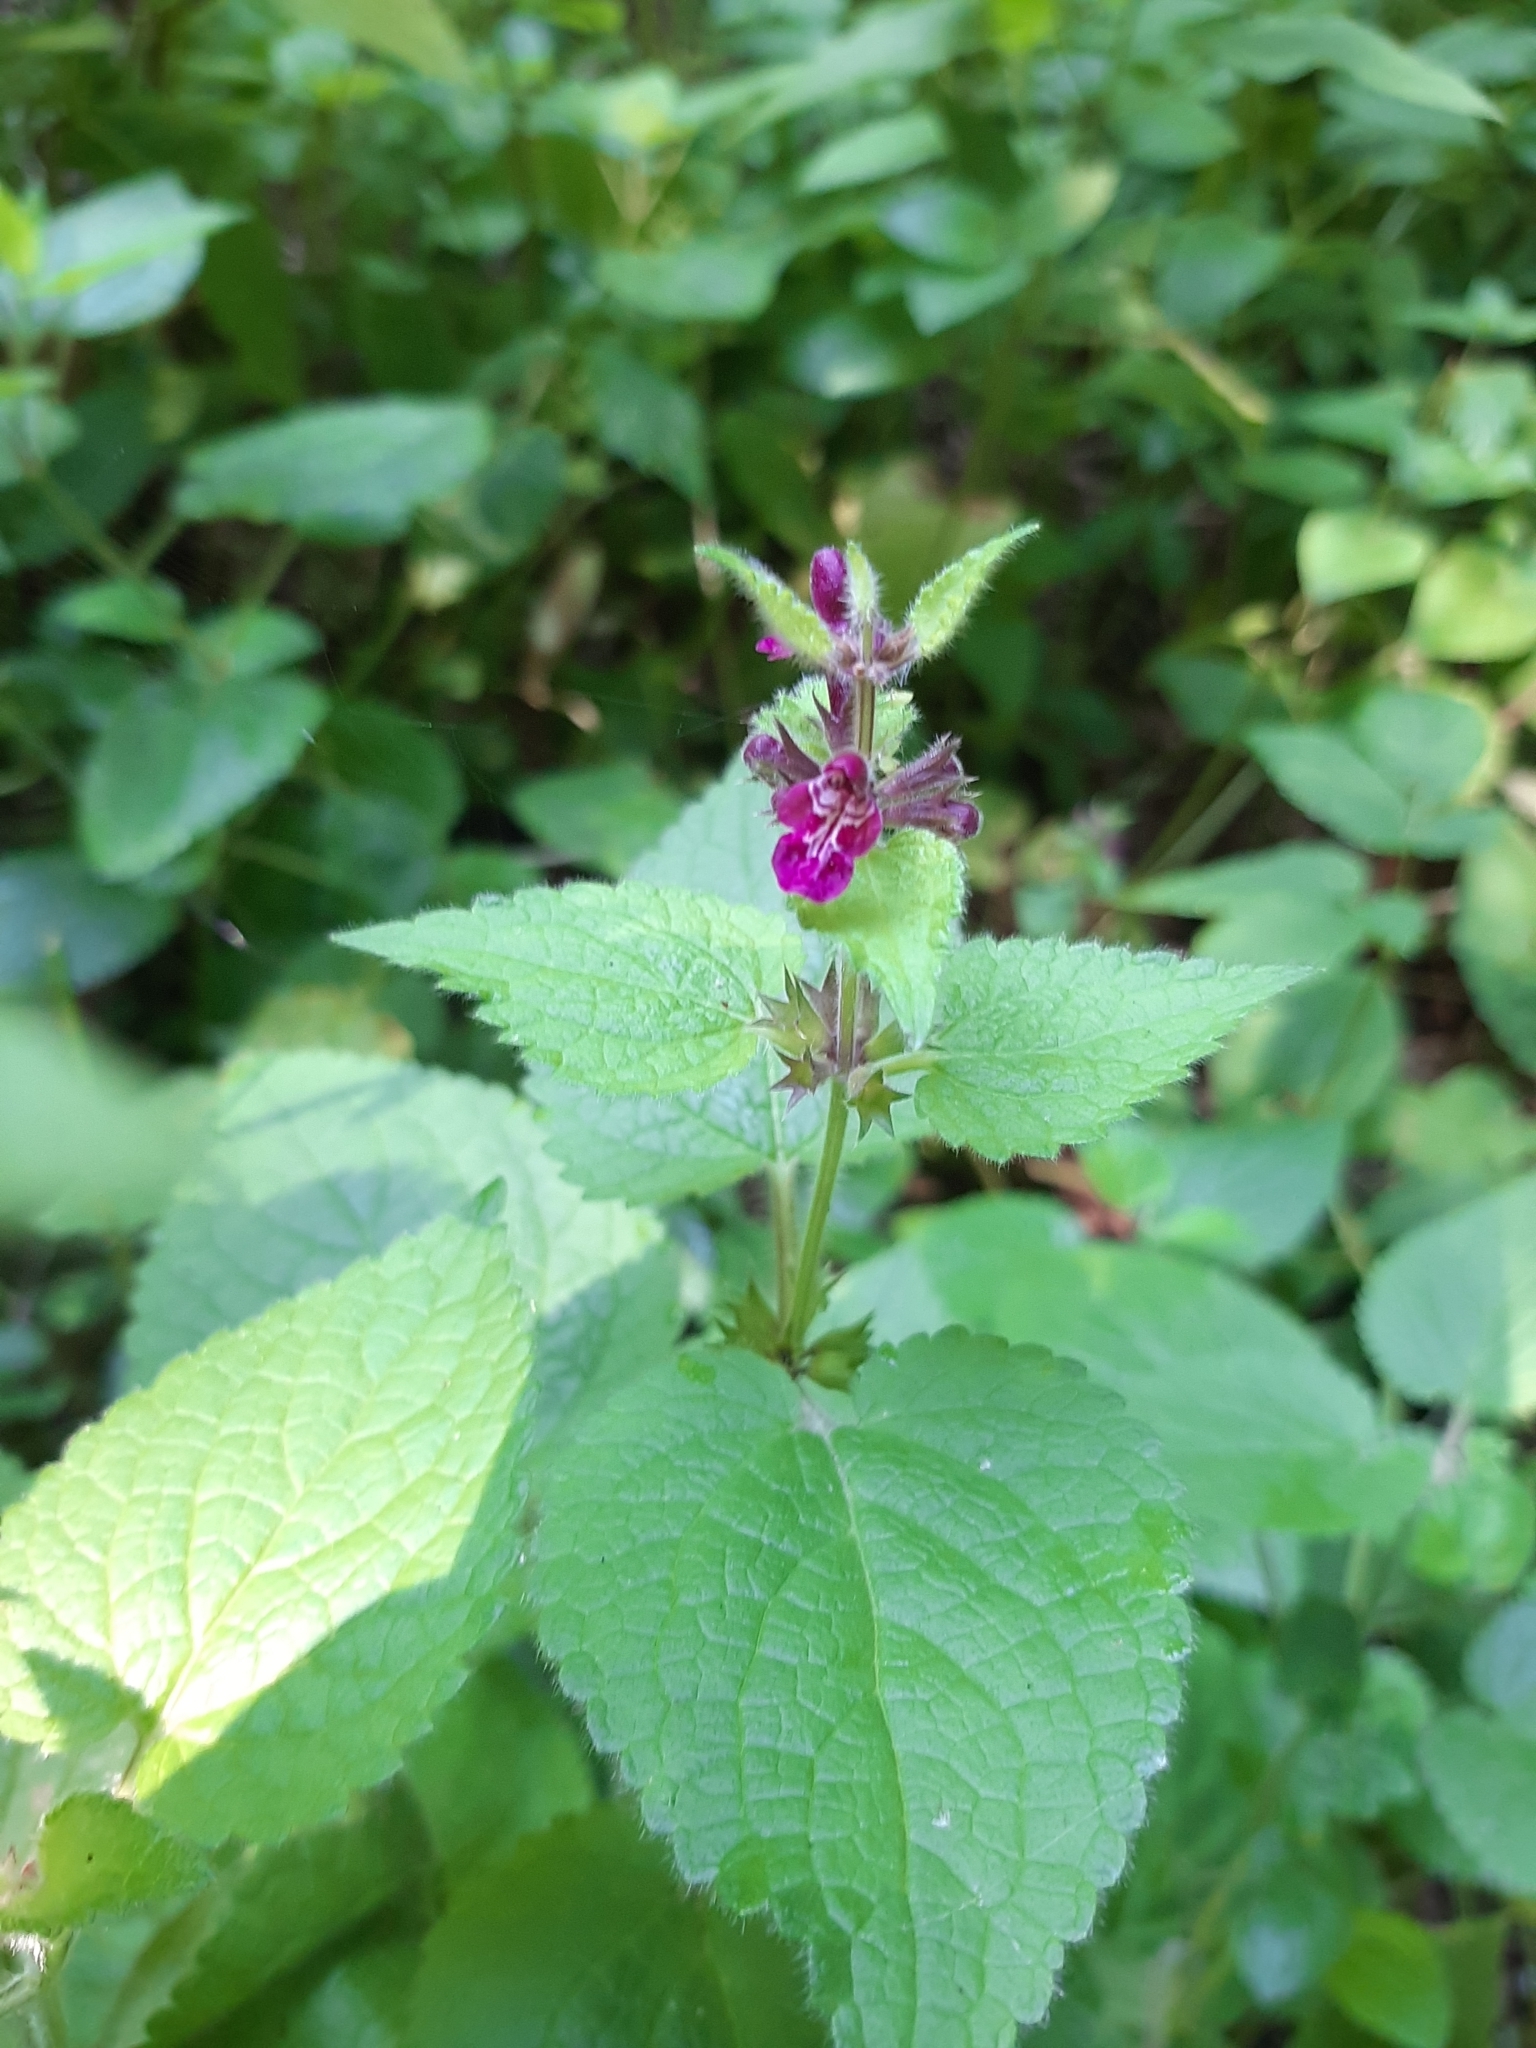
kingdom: Plantae
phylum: Tracheophyta
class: Magnoliopsida
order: Lamiales
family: Lamiaceae
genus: Stachys
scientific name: Stachys sylvatica
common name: Hedge woundwort
